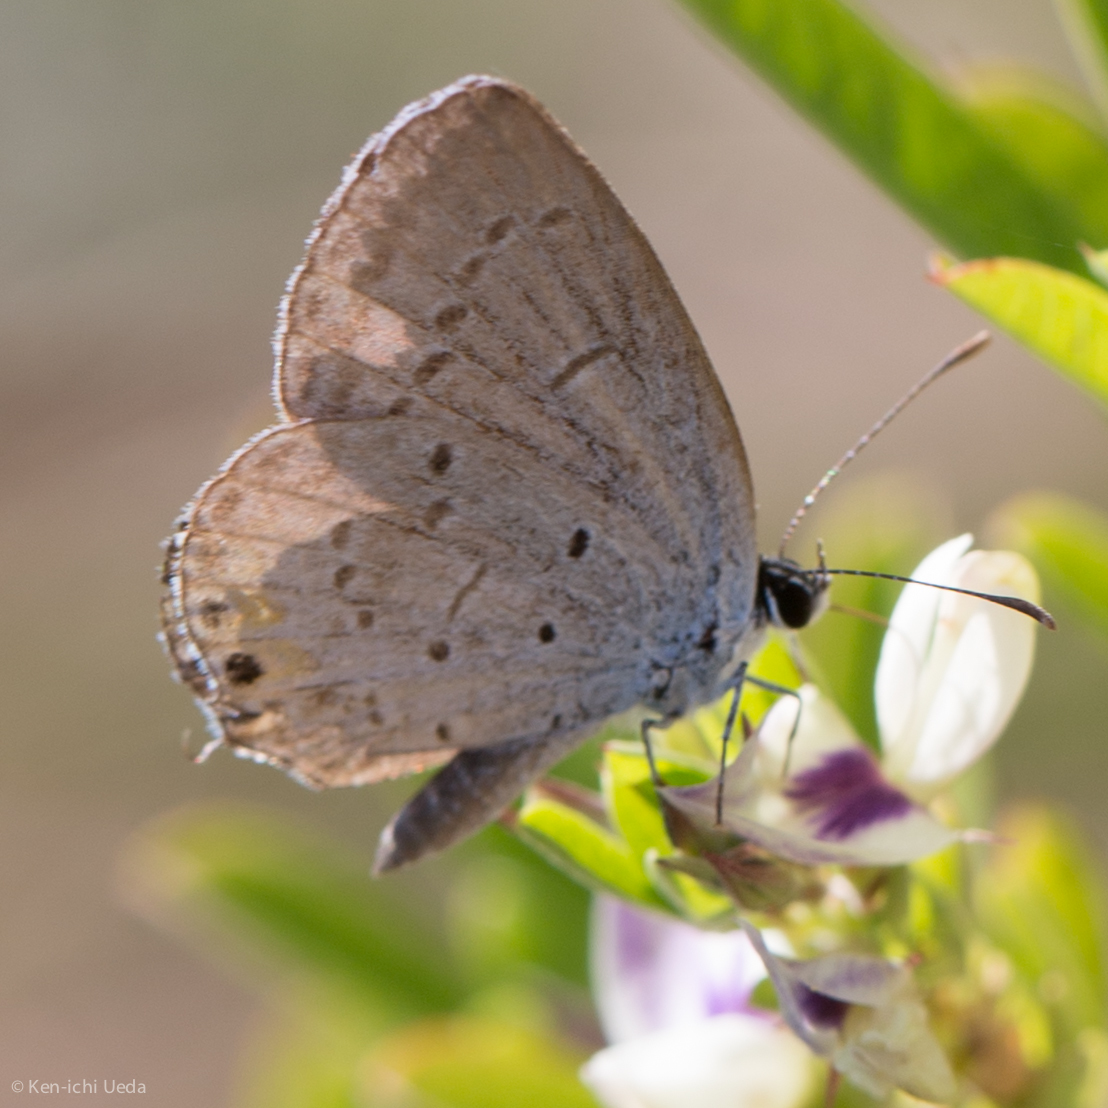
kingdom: Animalia
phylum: Arthropoda
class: Insecta
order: Lepidoptera
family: Lycaenidae
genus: Elkalyce
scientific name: Elkalyce comyntas
